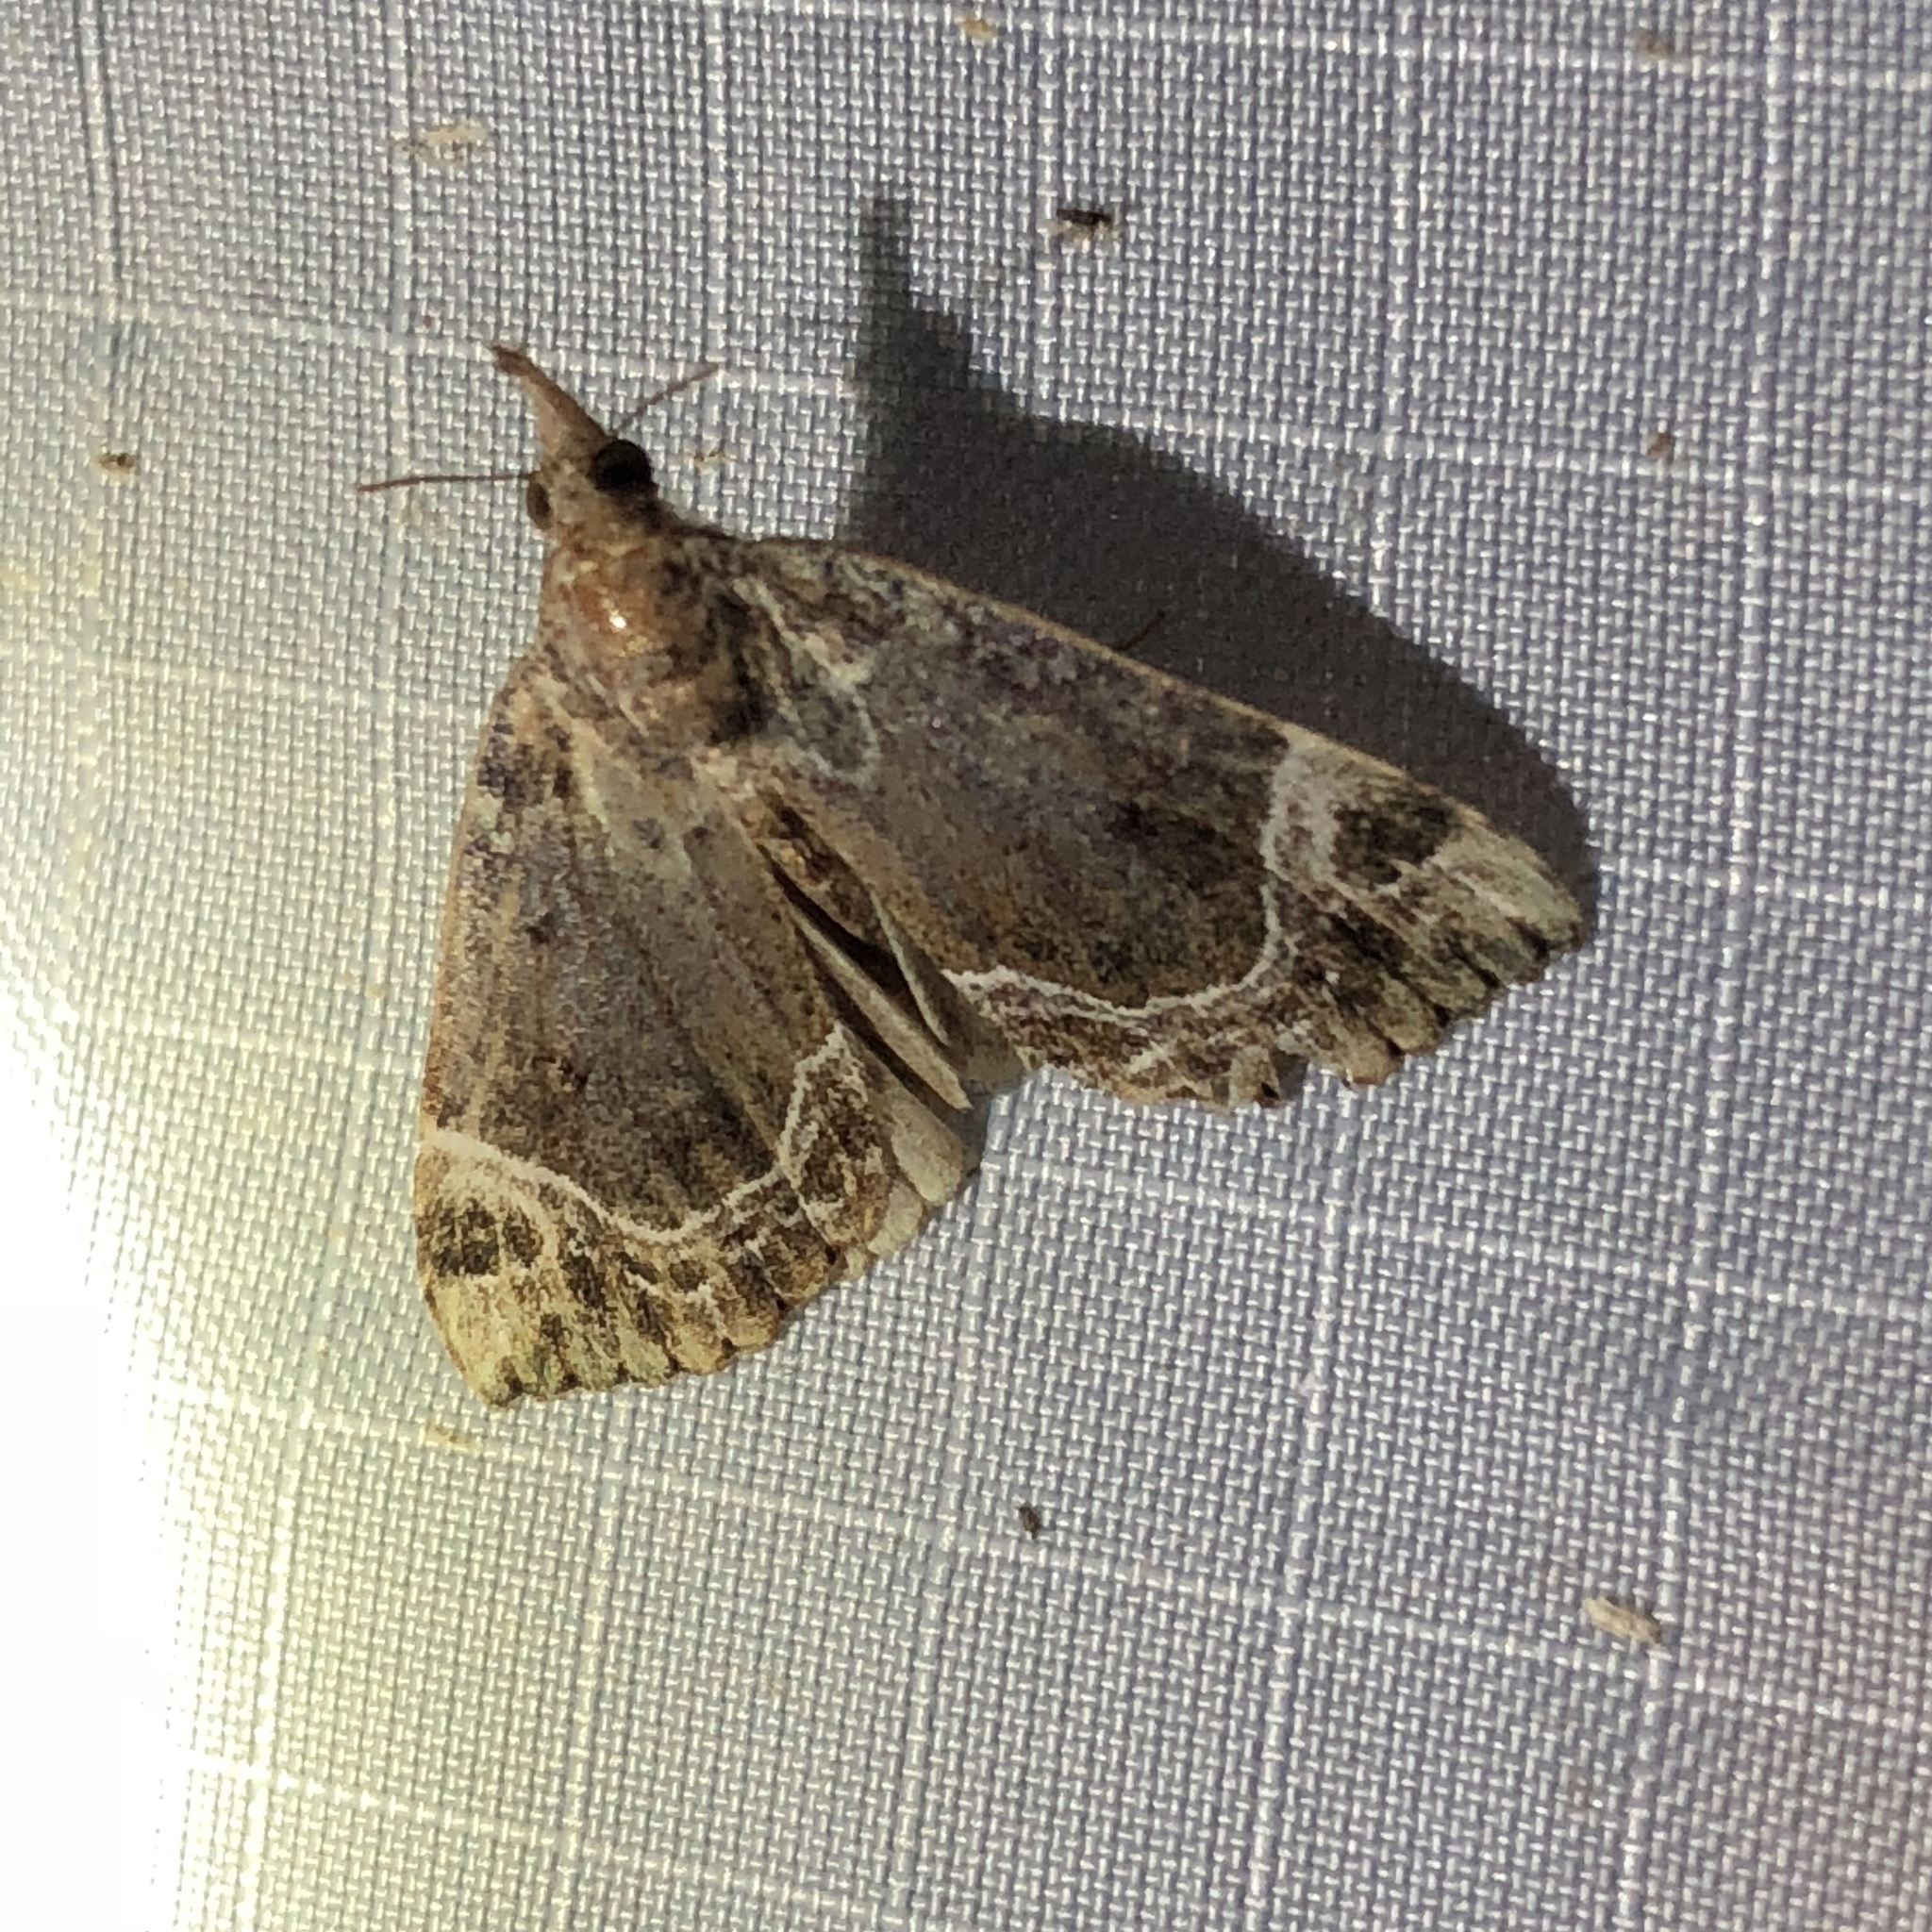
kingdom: Animalia
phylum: Arthropoda
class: Insecta
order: Lepidoptera
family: Erebidae
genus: Hypena
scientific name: Hypena abalienalis
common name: White-lined snout
